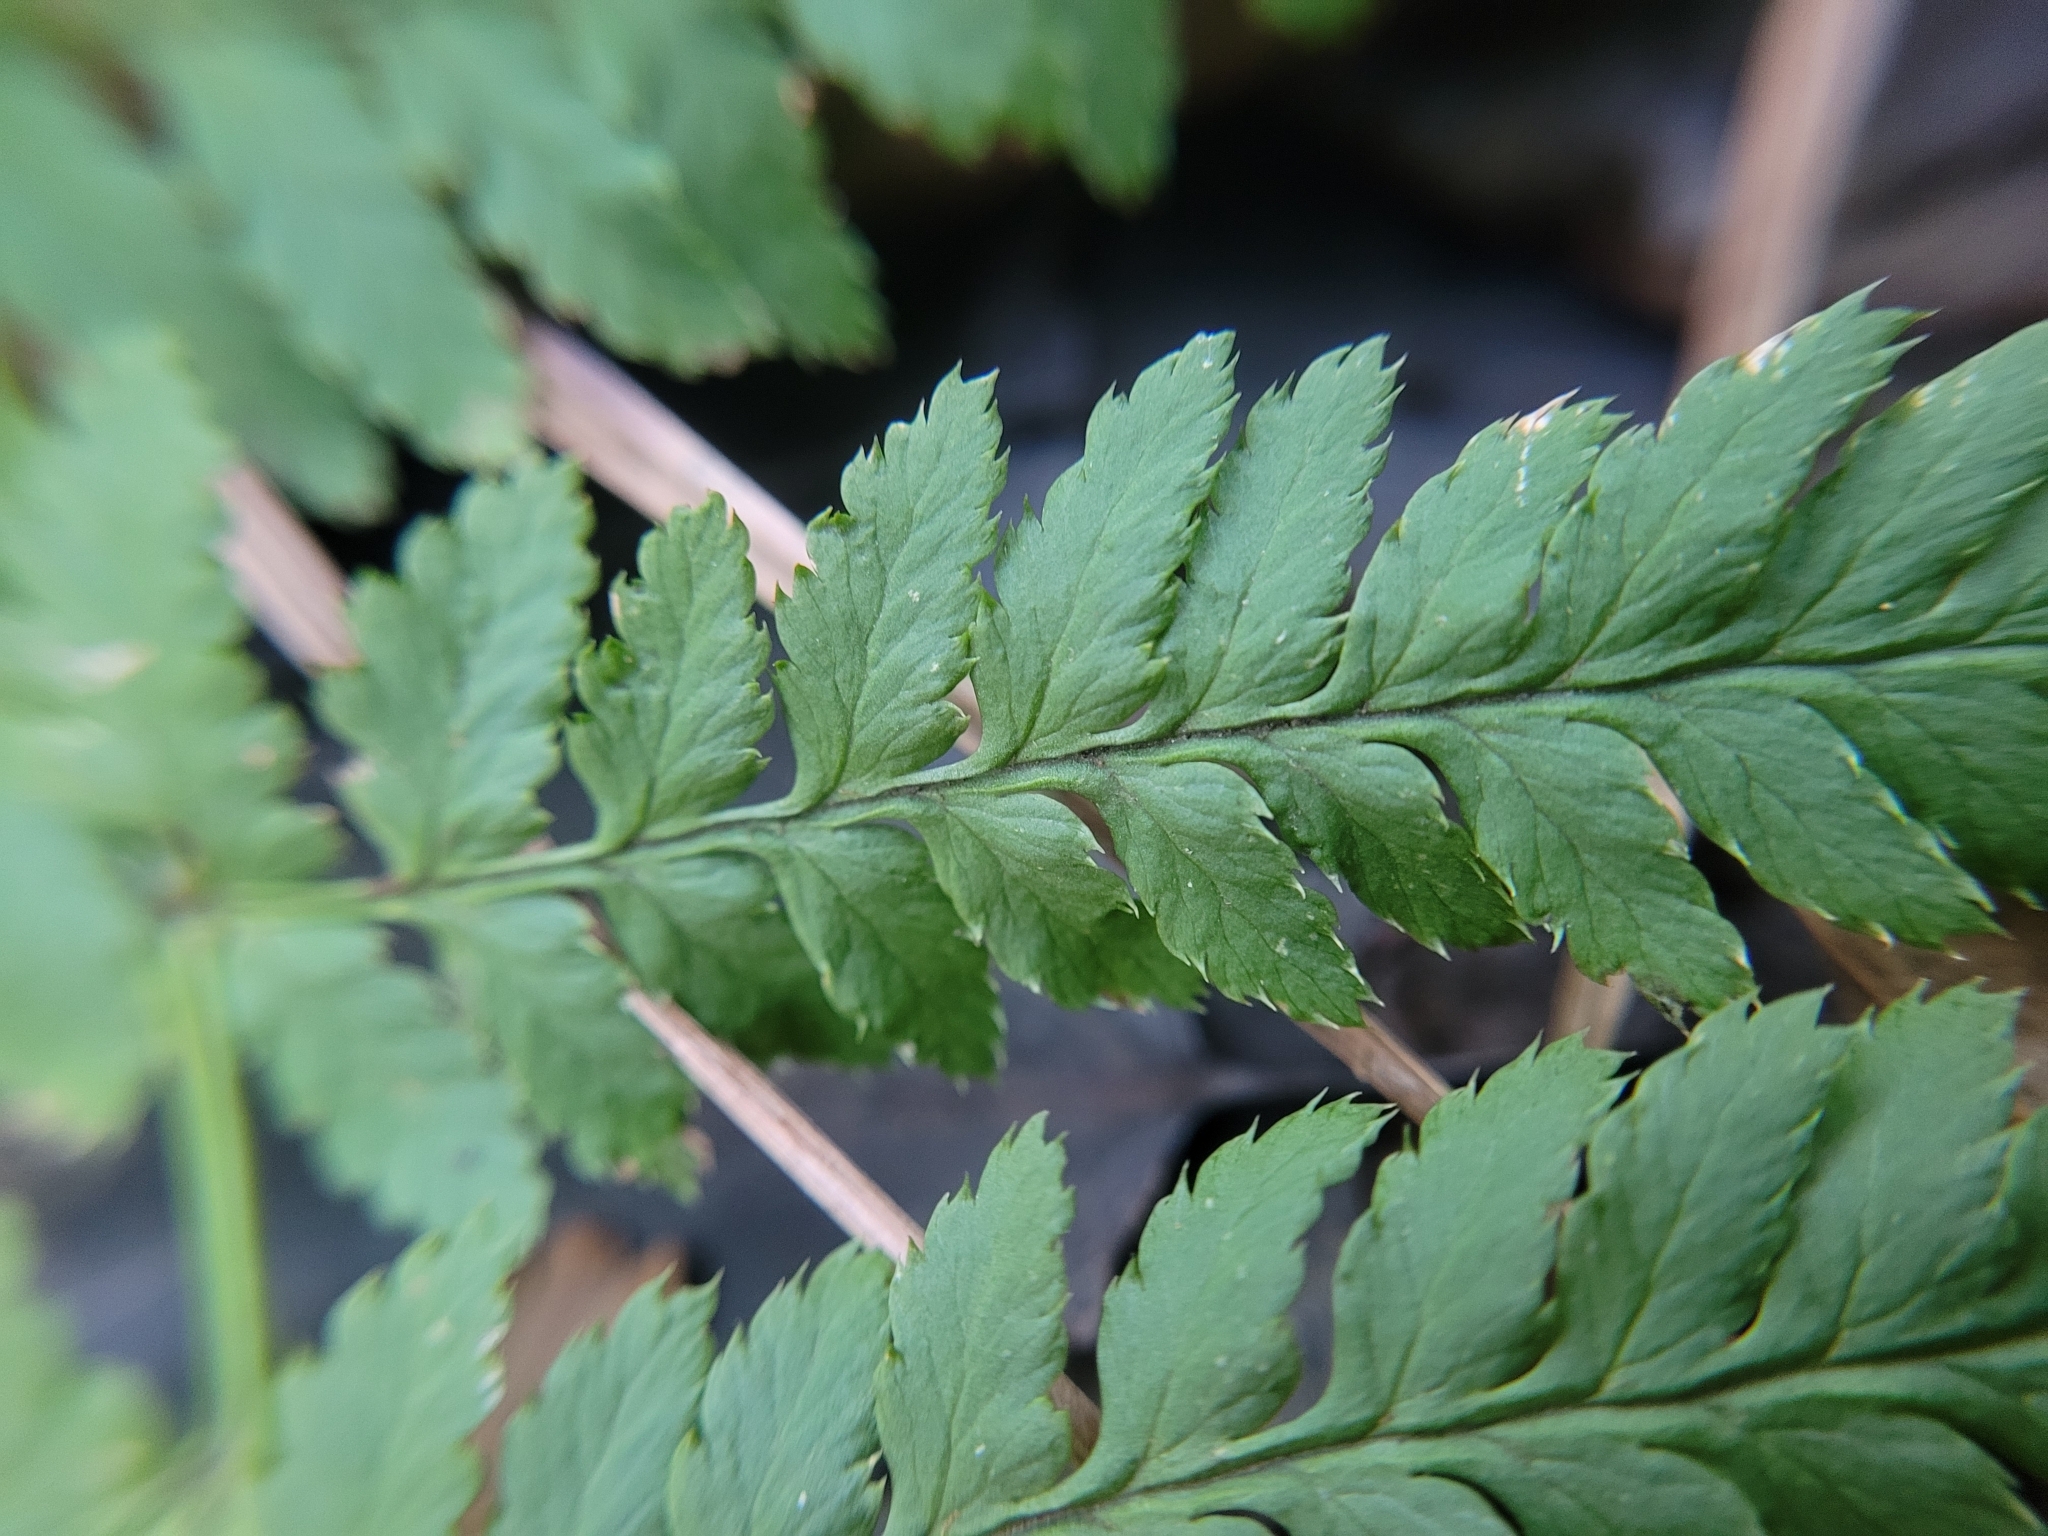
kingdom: Plantae
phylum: Tracheophyta
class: Polypodiopsida
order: Polypodiales
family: Dryopteridaceae
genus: Dryopteris
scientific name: Dryopteris carthusiana
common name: Narrow buckler-fern
